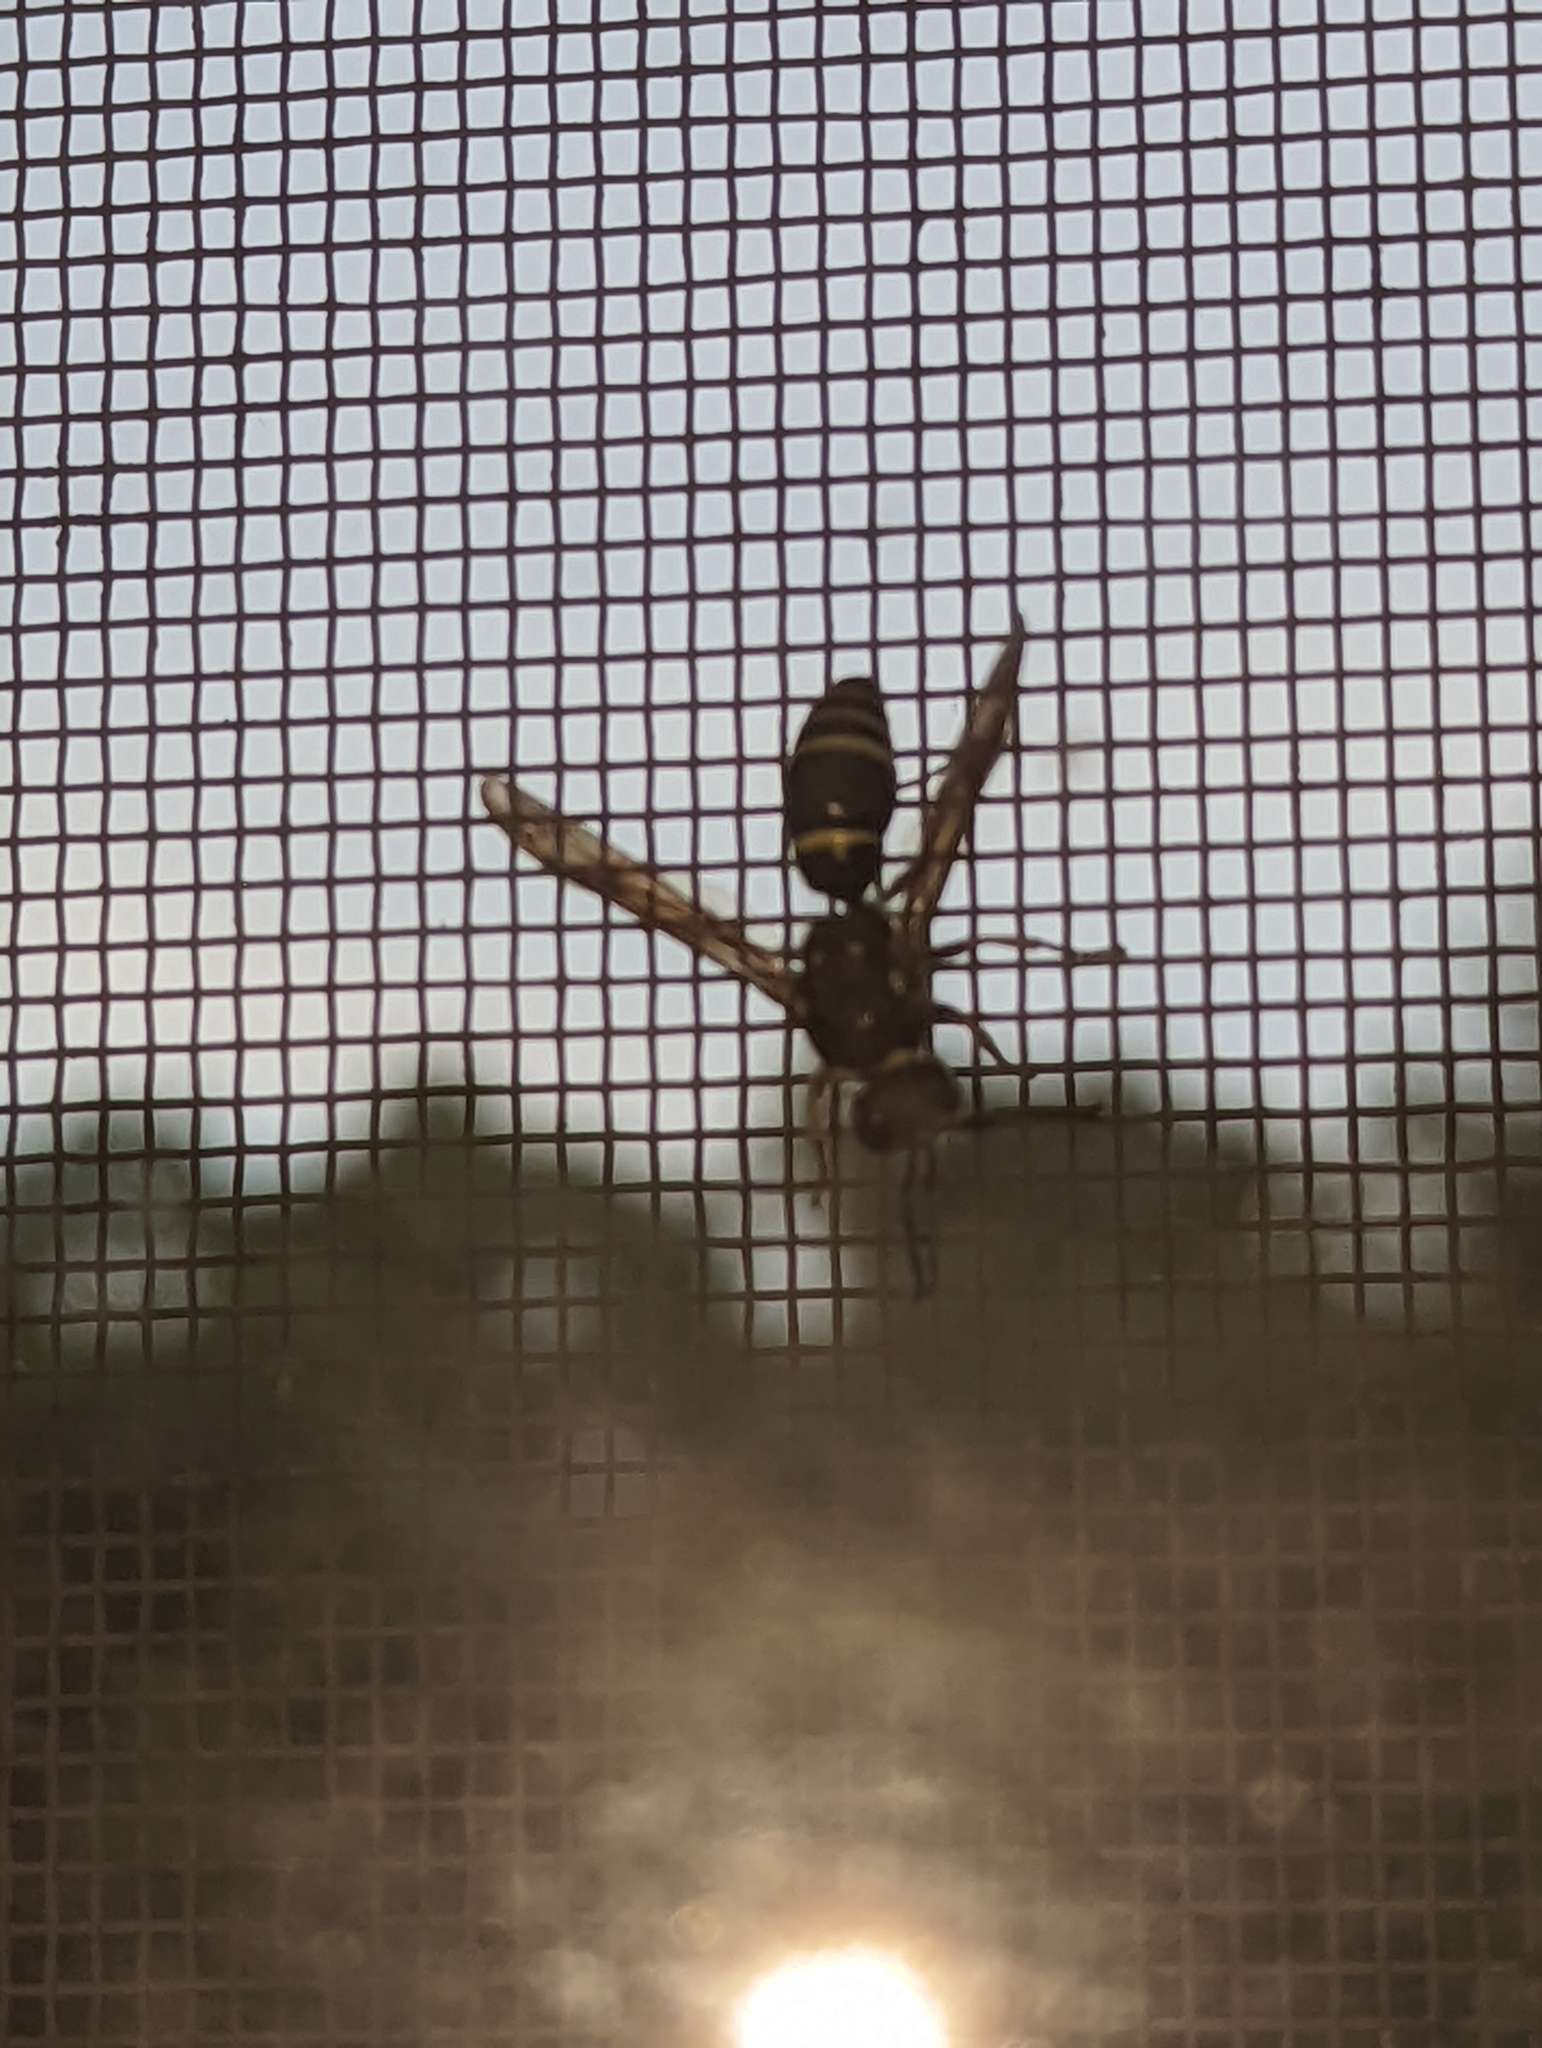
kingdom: Animalia
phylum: Arthropoda
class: Insecta
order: Hymenoptera
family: Vespidae
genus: Ancistrocerus
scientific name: Ancistrocerus
